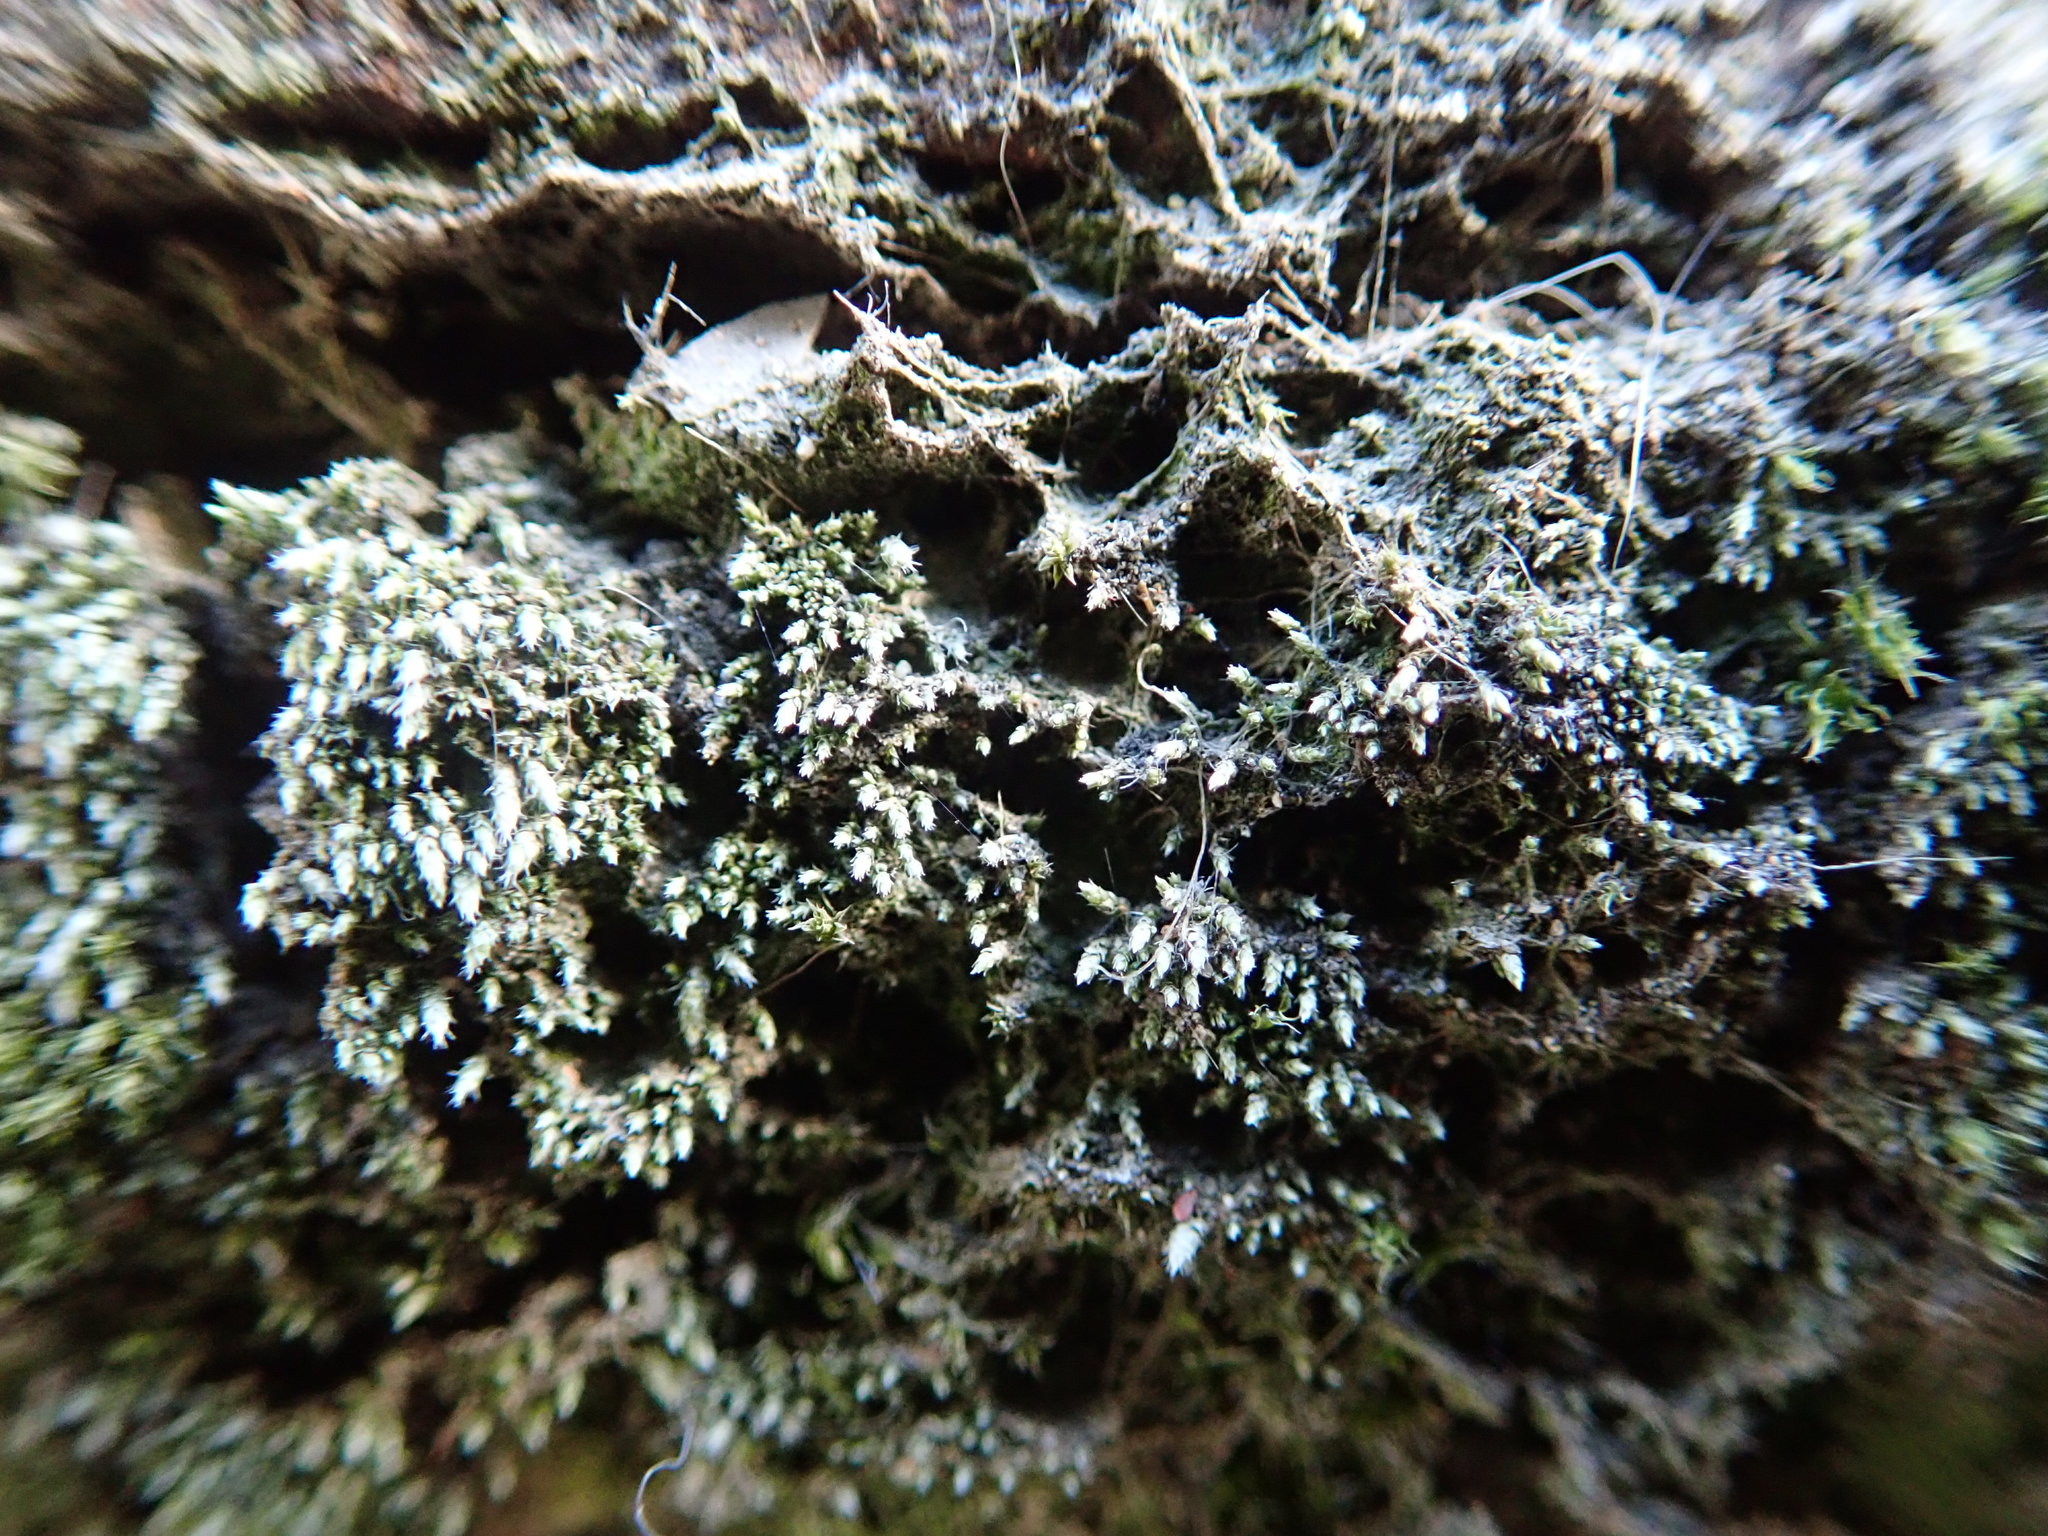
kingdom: Plantae
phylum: Bryophyta
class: Bryopsida
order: Bryales
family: Bryaceae
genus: Bryum
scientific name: Bryum argenteum
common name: Silver-moss
